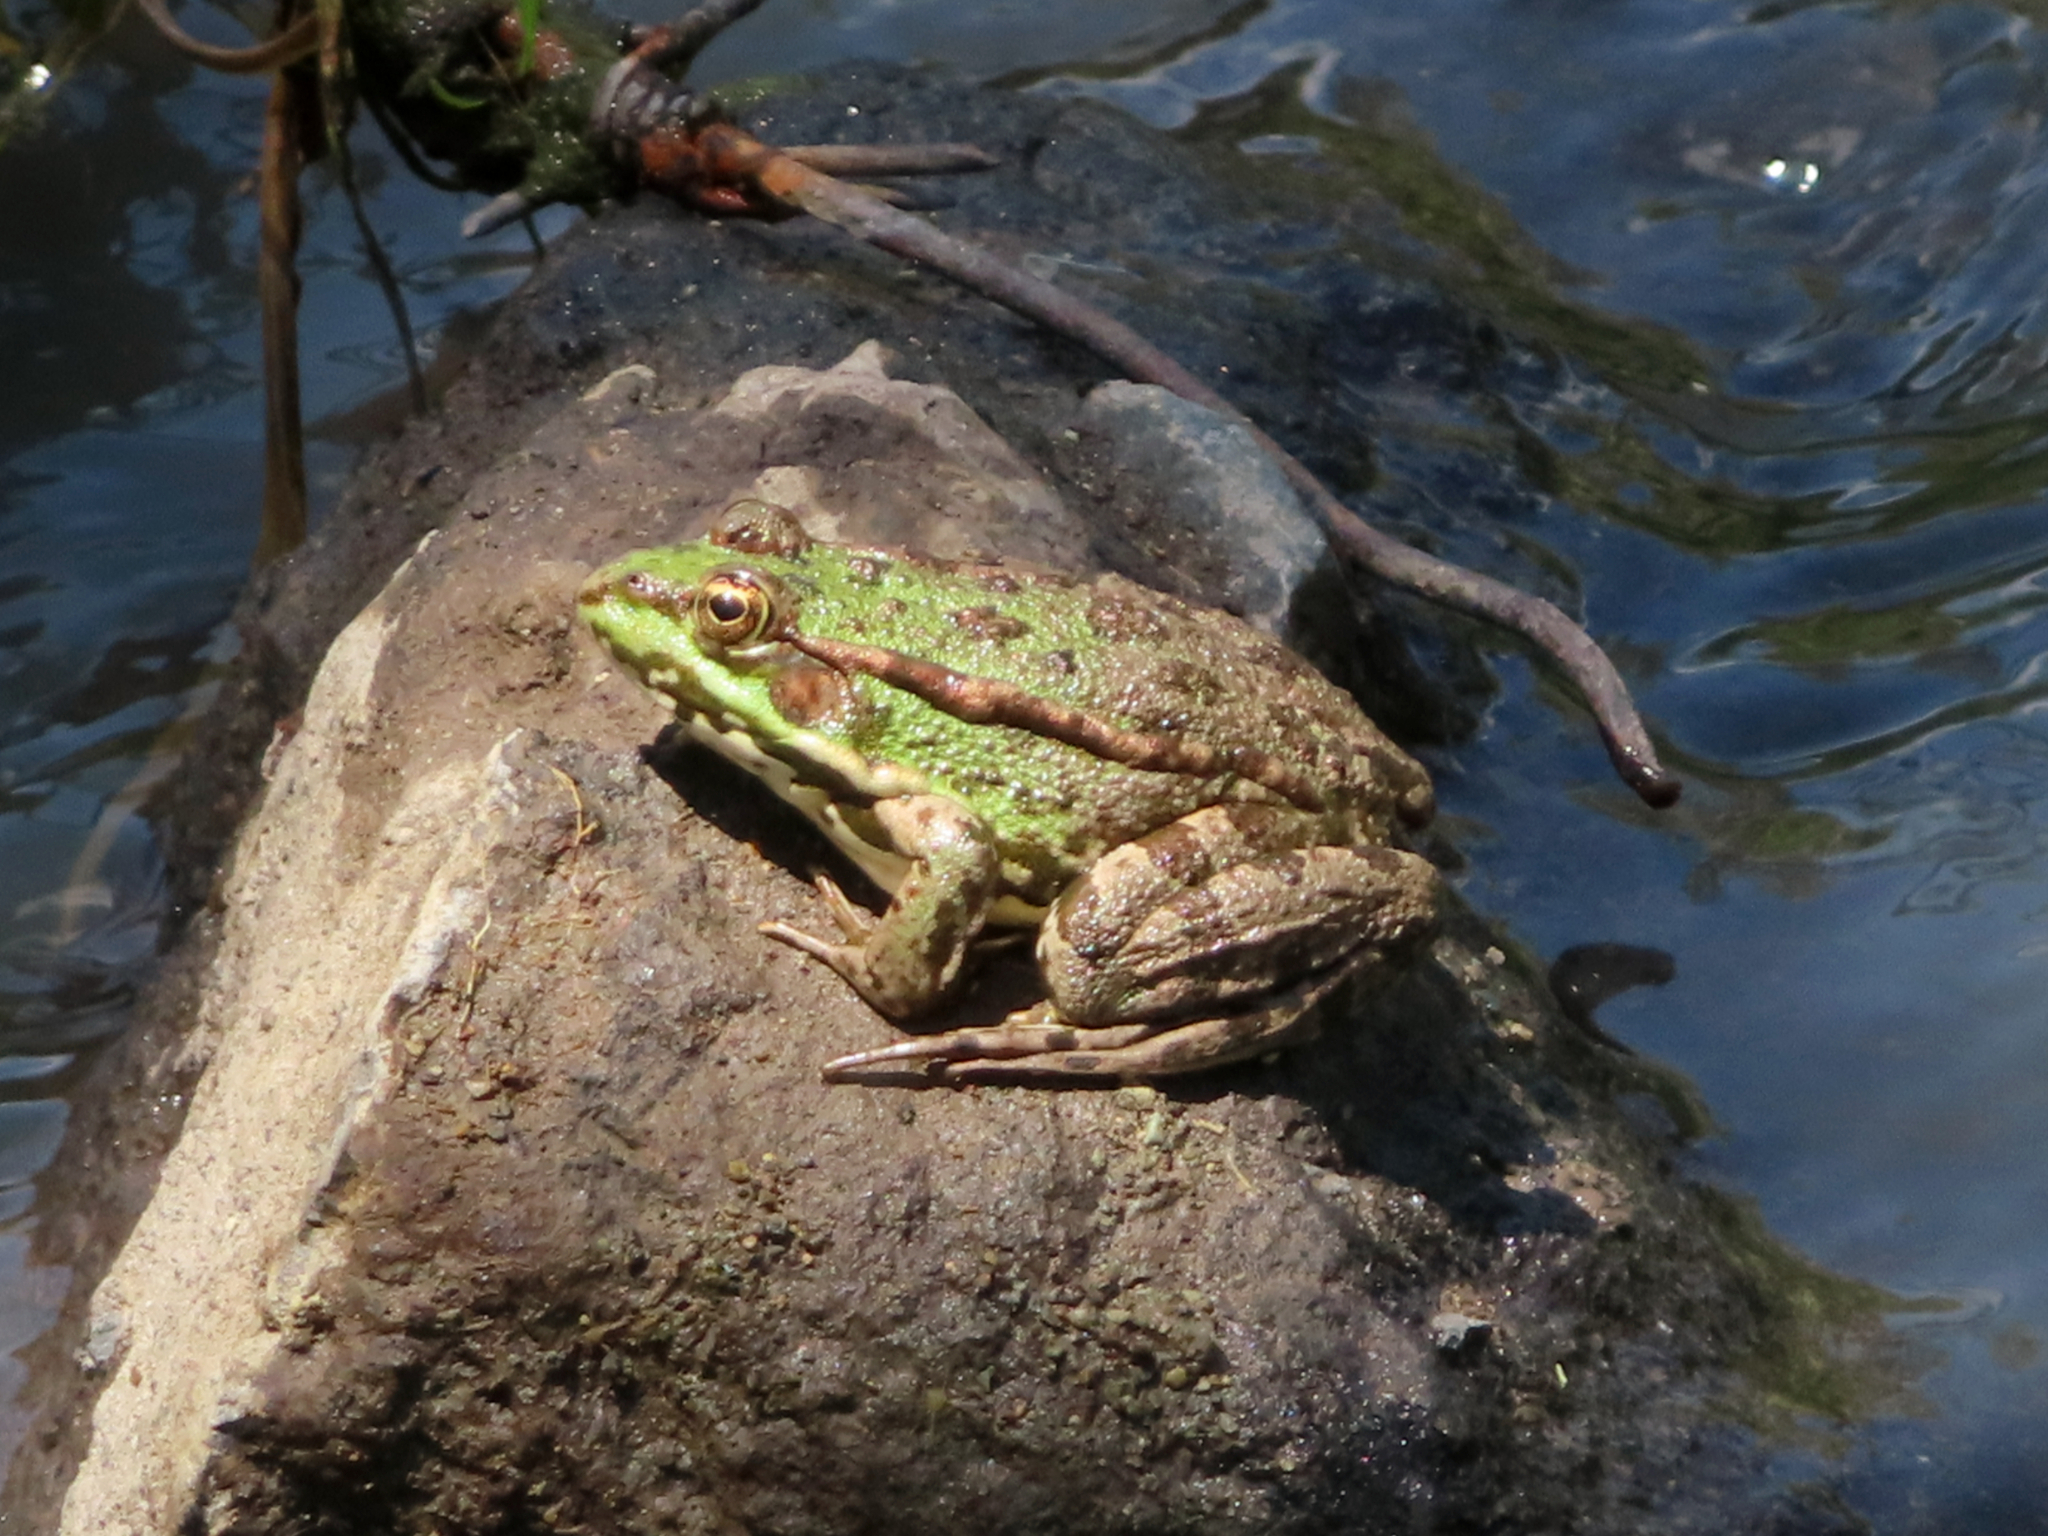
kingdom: Animalia
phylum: Chordata
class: Amphibia
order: Anura
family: Ranidae
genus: Pelophylax
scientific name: Pelophylax ridibundus
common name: Marsh frog
